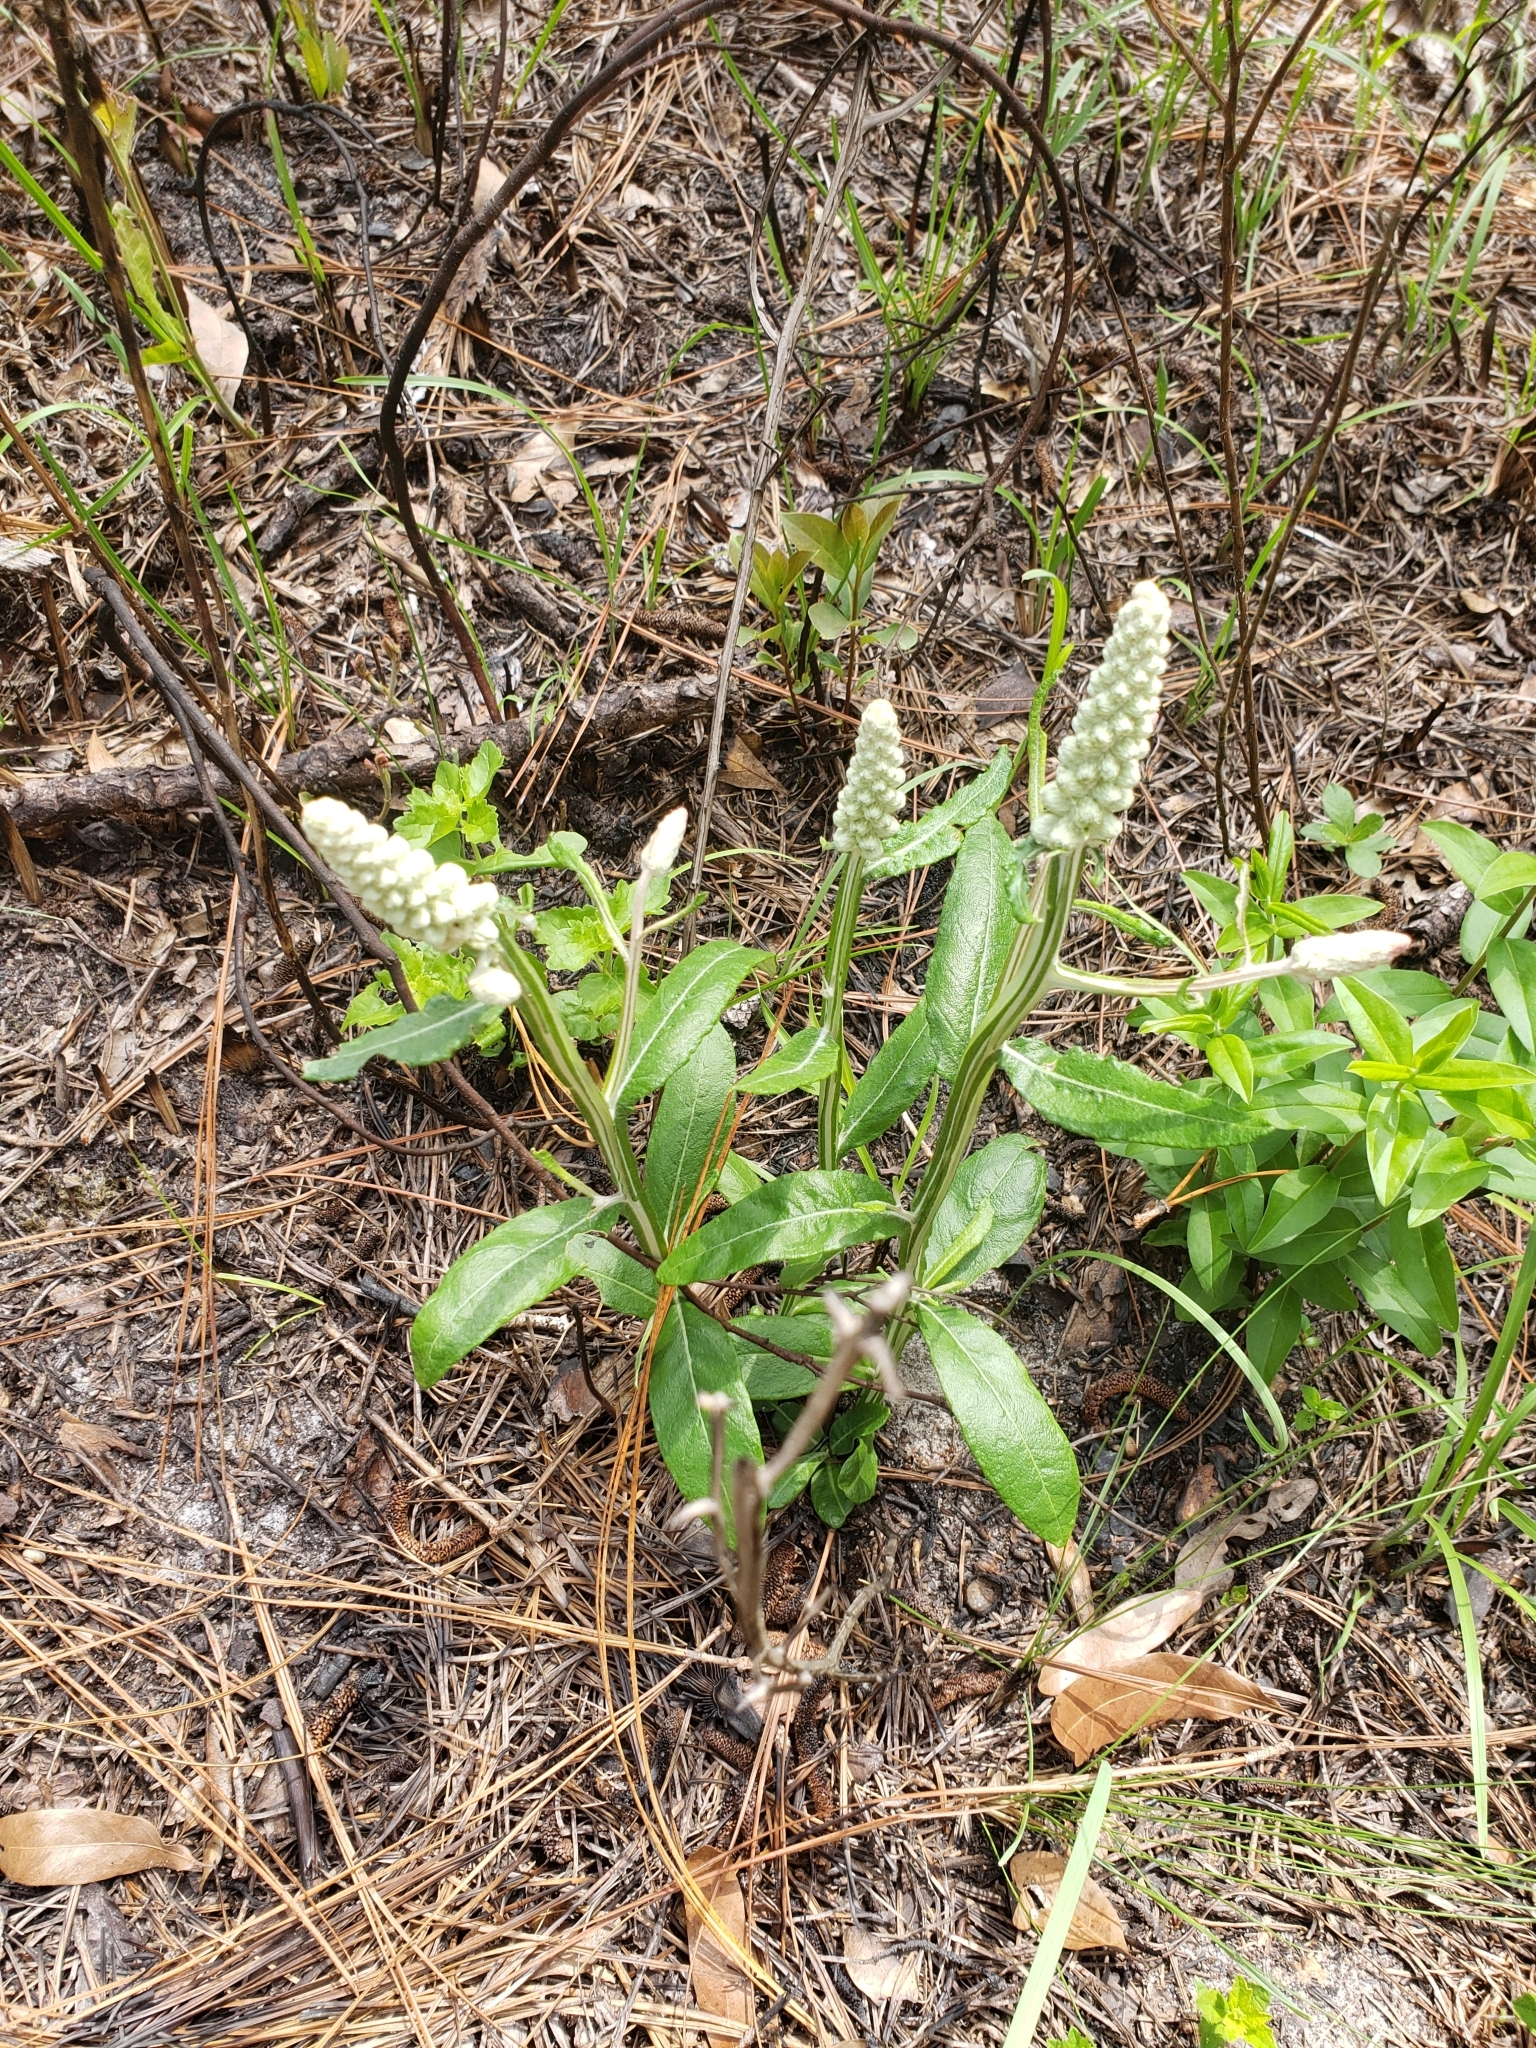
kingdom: Plantae
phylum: Tracheophyta
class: Magnoliopsida
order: Asterales
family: Asteraceae
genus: Pterocaulon
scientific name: Pterocaulon pycnostachyum
